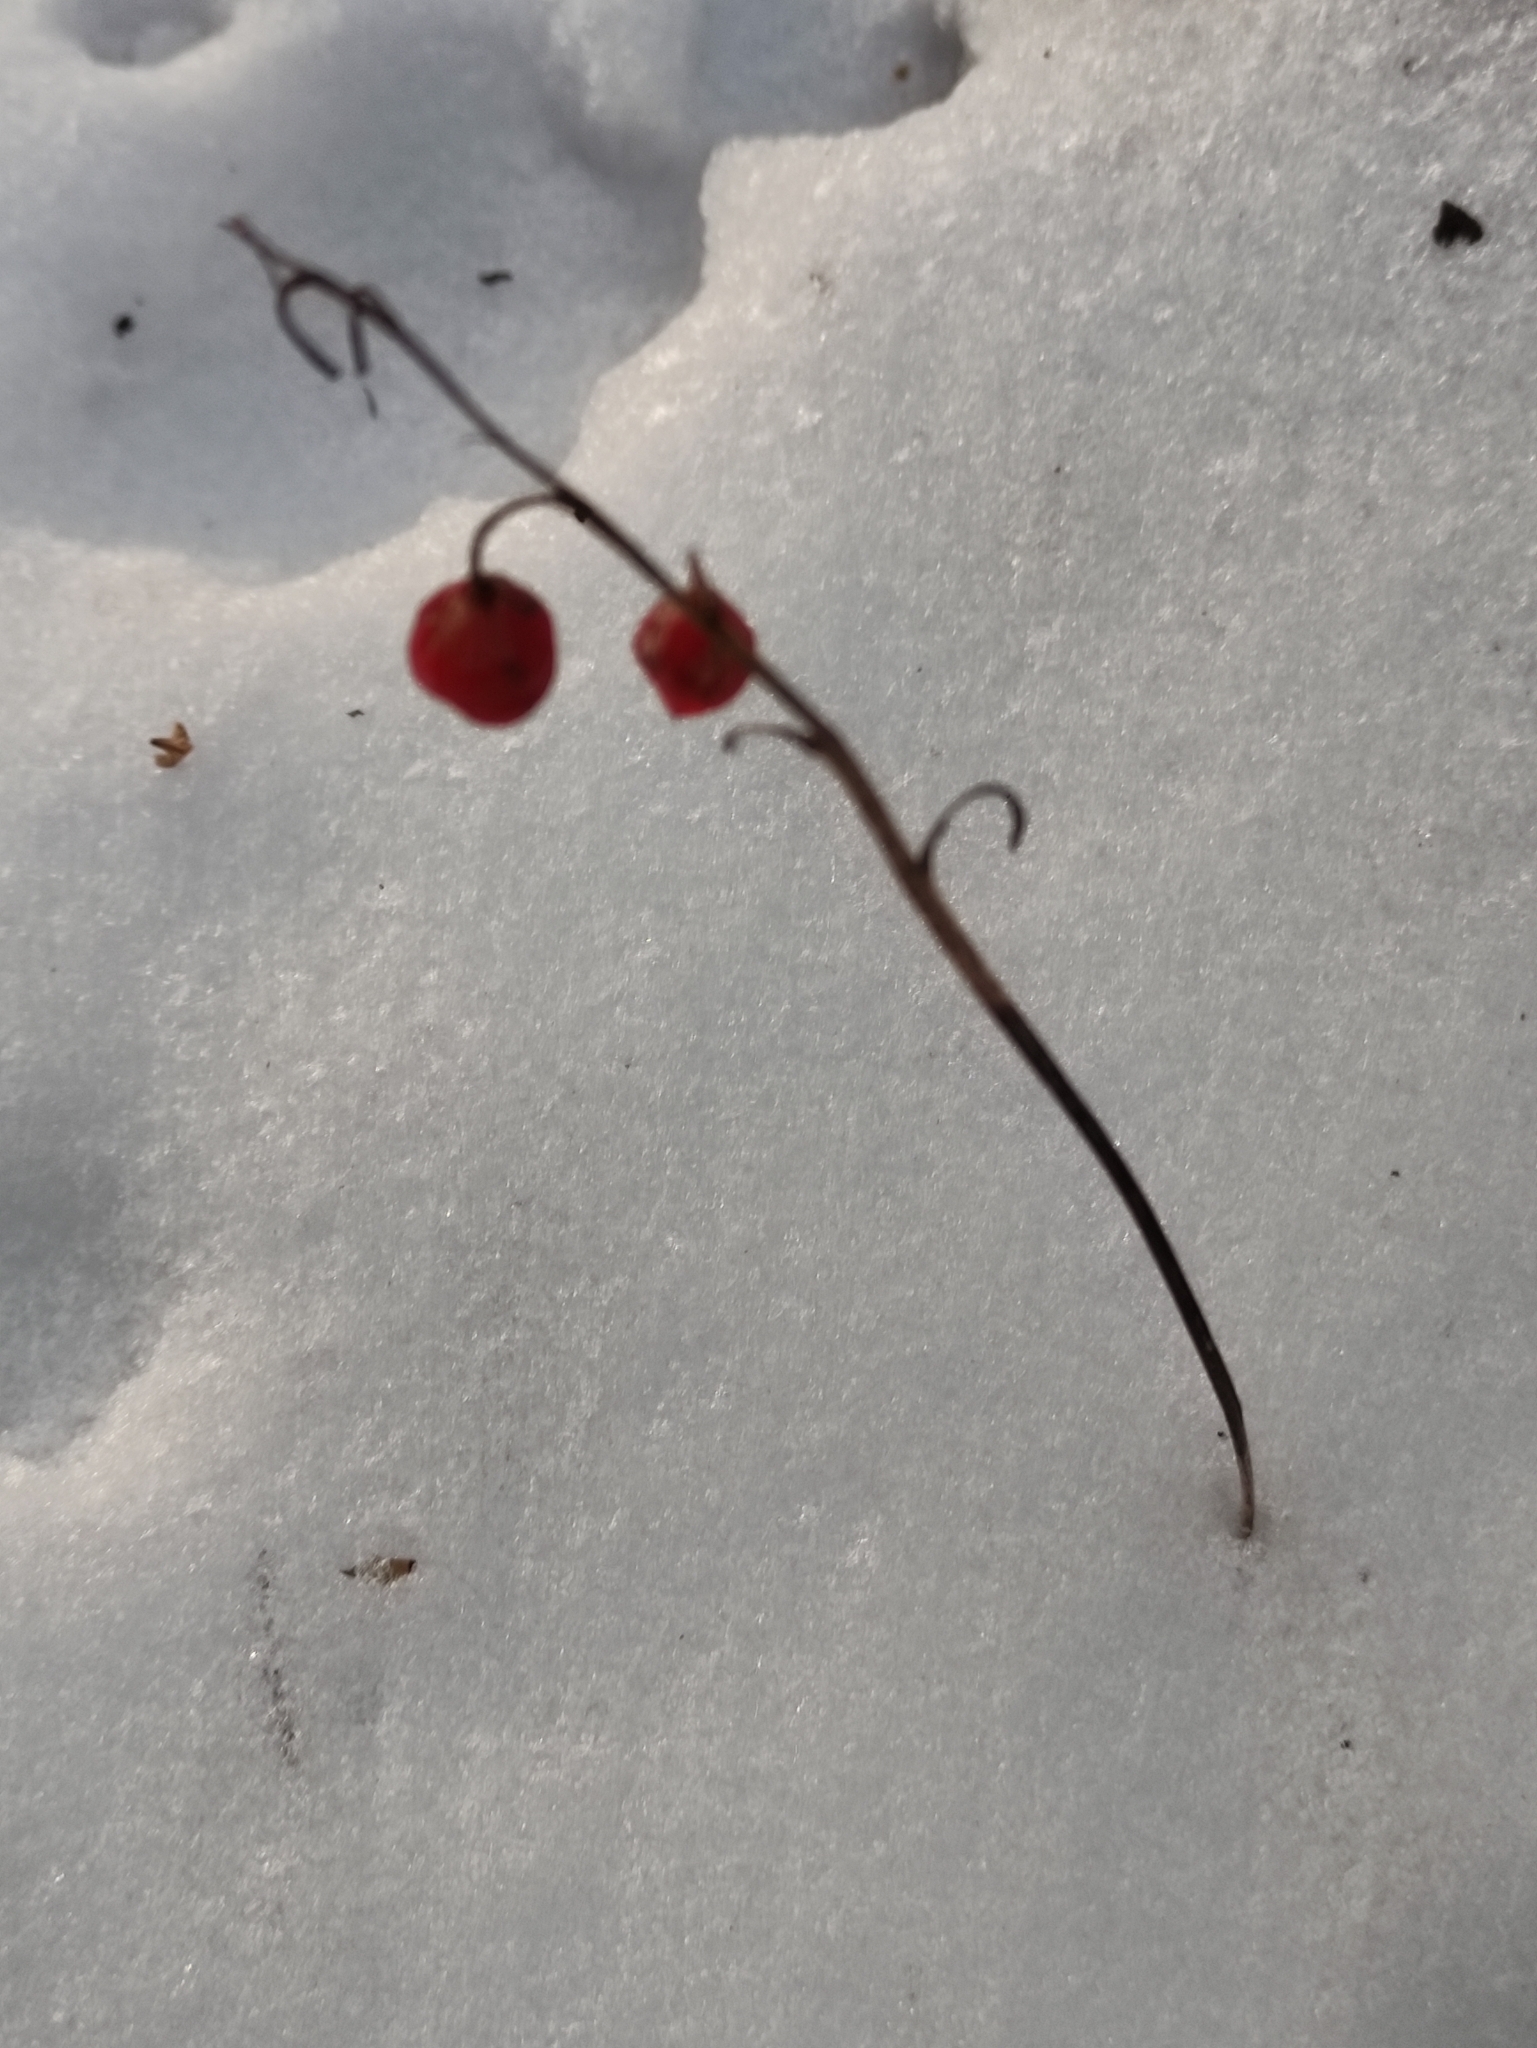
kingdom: Plantae
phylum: Tracheophyta
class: Liliopsida
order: Asparagales
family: Asparagaceae
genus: Convallaria
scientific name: Convallaria majalis
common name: Lily-of-the-valley
